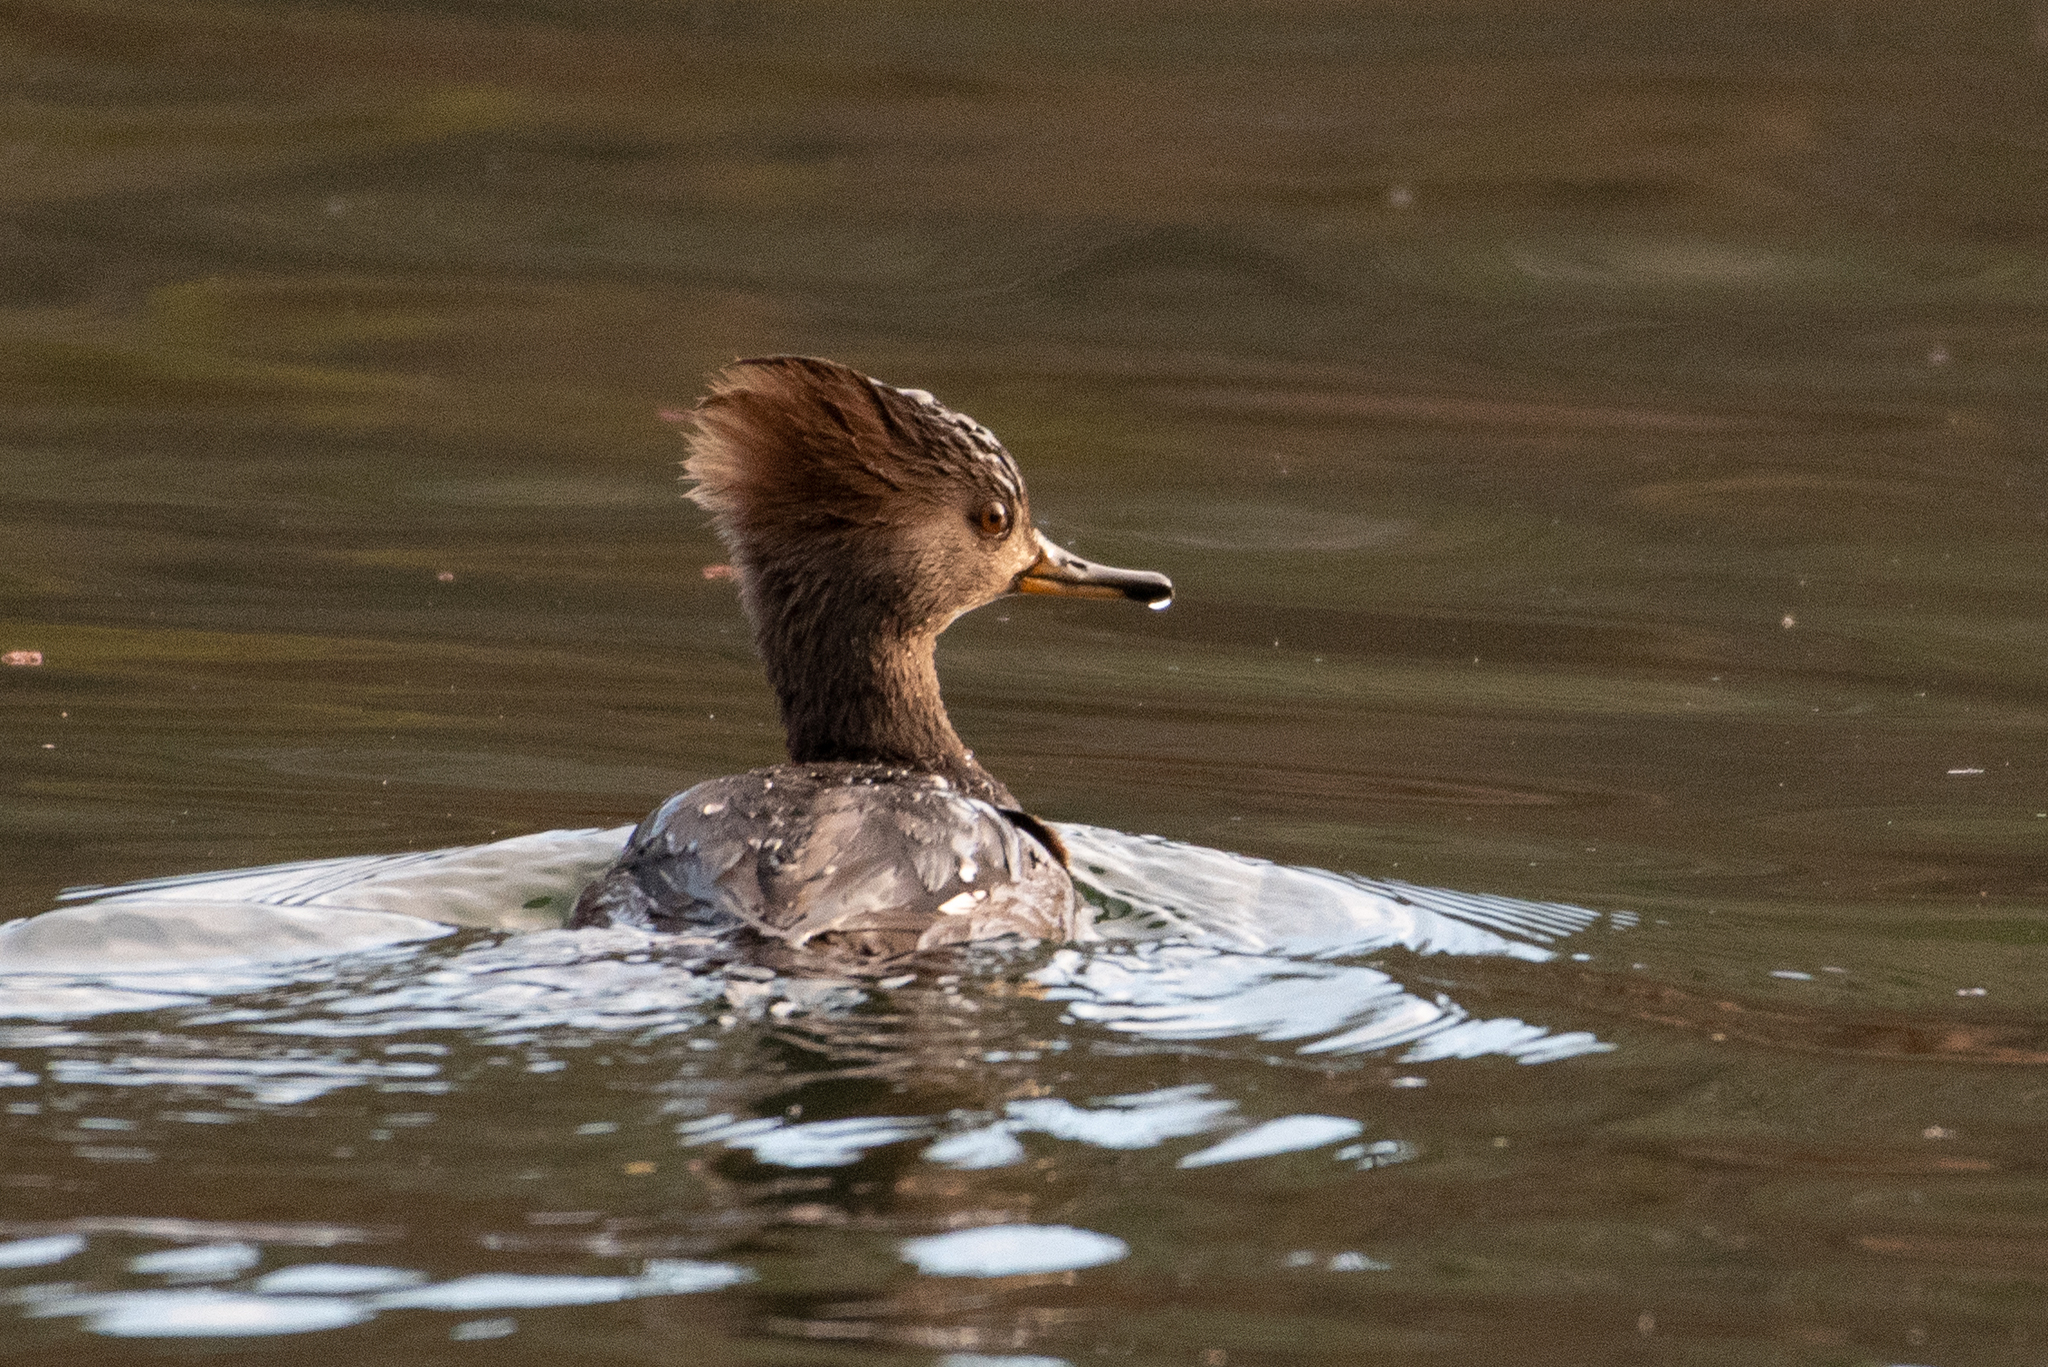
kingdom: Animalia
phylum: Chordata
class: Aves
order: Anseriformes
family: Anatidae
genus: Lophodytes
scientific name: Lophodytes cucullatus
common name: Hooded merganser
